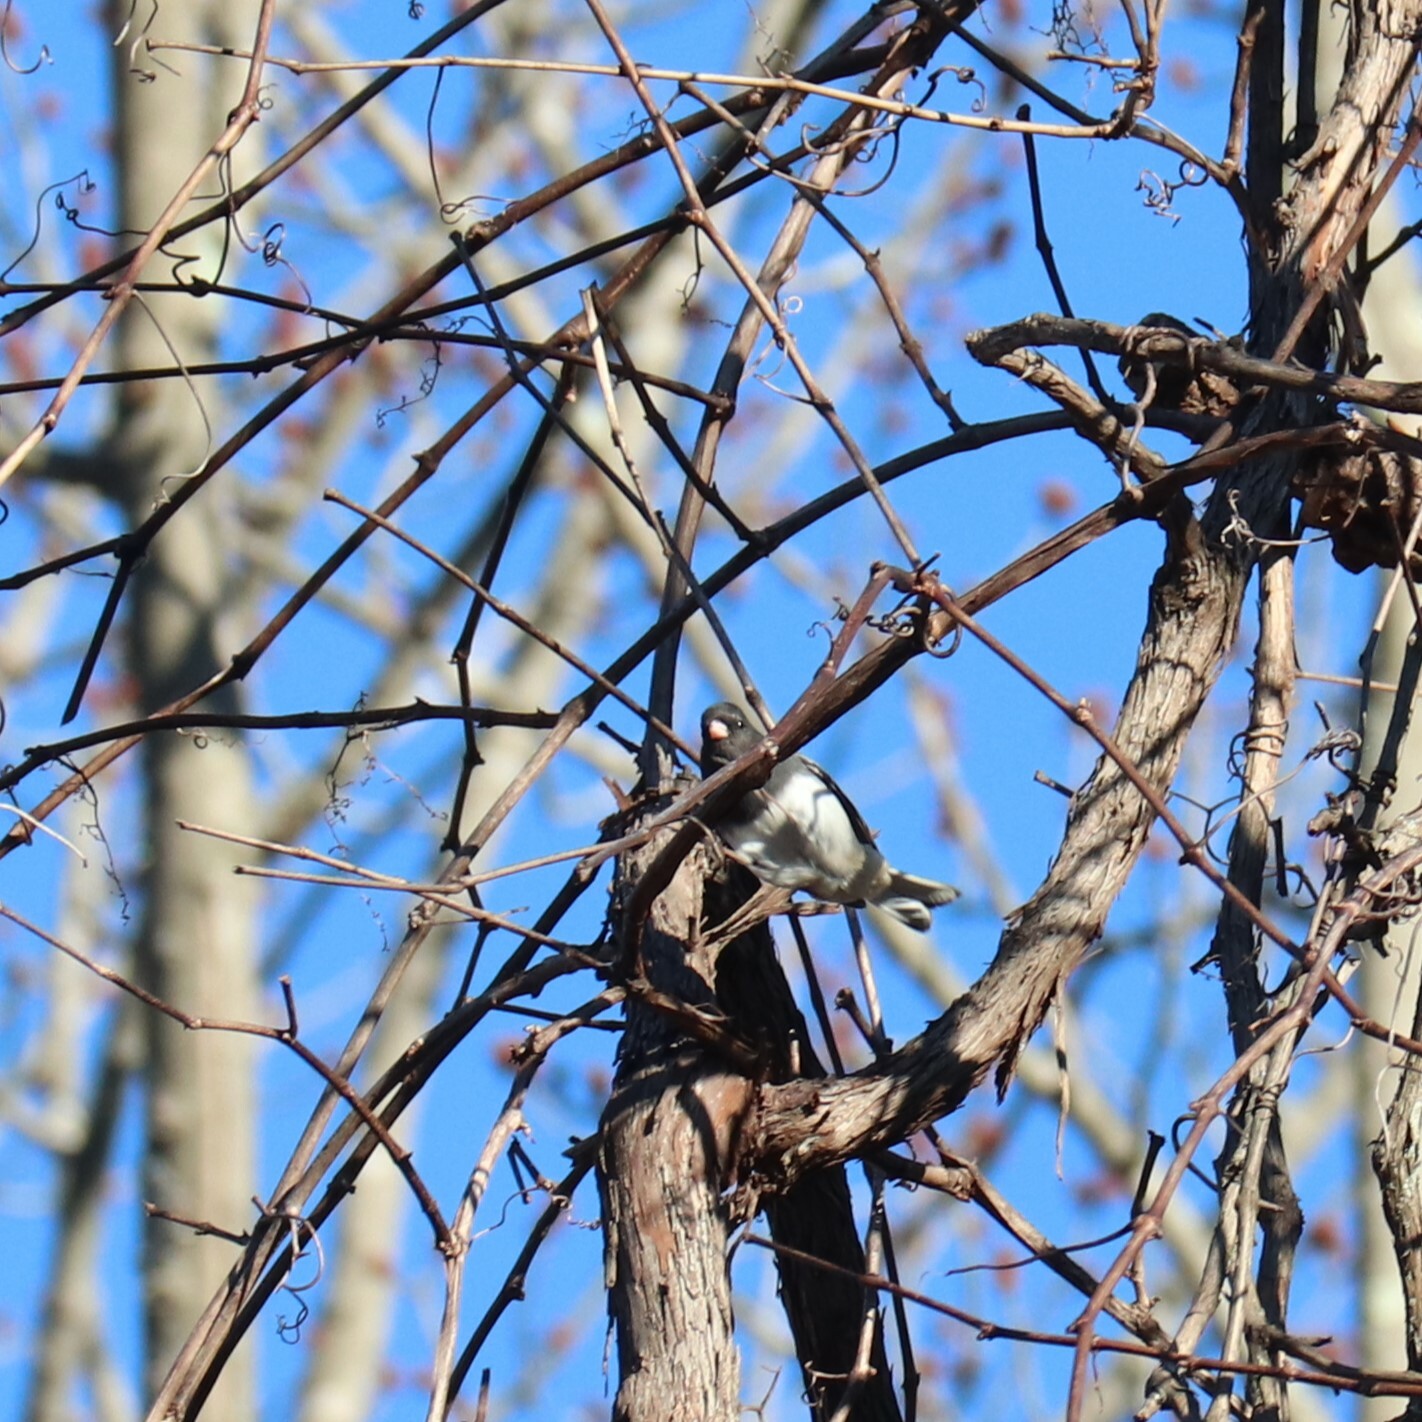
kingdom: Animalia
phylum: Chordata
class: Aves
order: Passeriformes
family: Passerellidae
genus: Junco
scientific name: Junco hyemalis
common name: Dark-eyed junco
